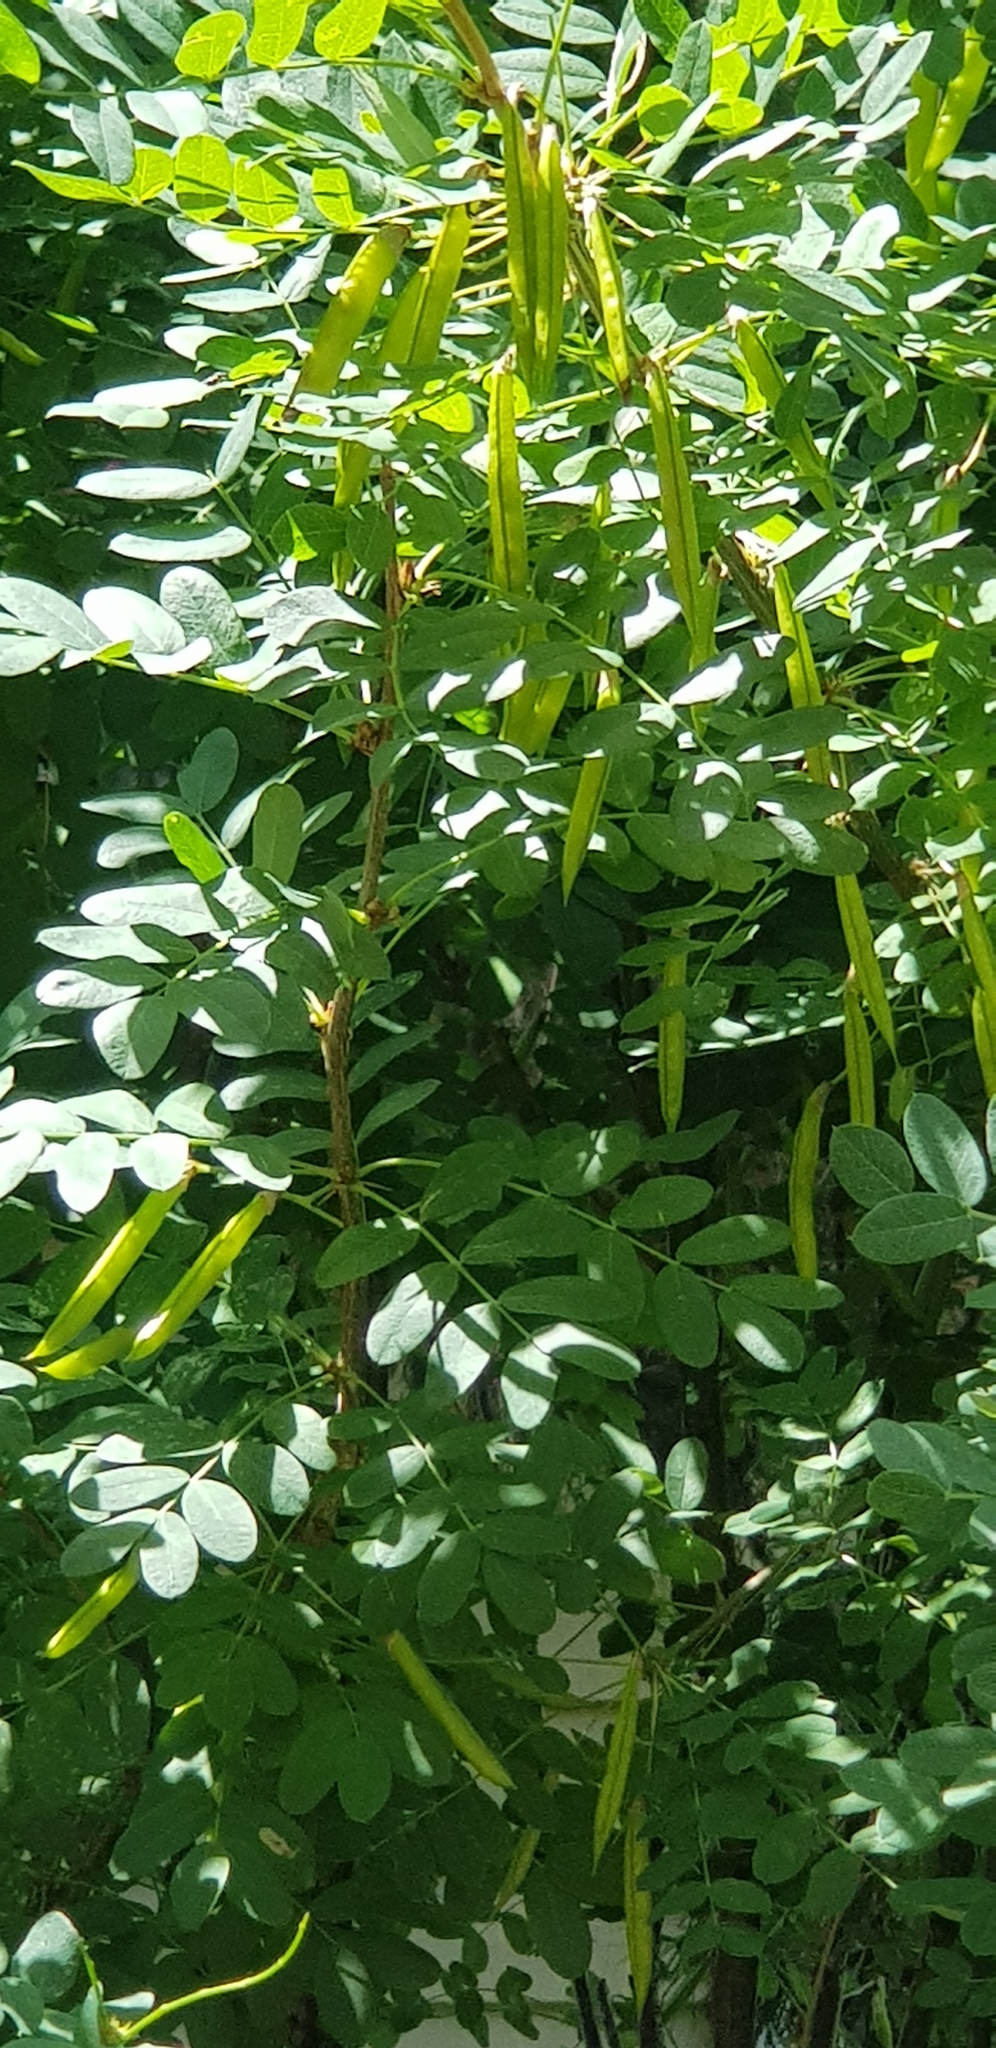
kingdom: Plantae
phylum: Tracheophyta
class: Magnoliopsida
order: Fabales
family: Fabaceae
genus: Caragana
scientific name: Caragana arborescens
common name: Siberian peashrub
